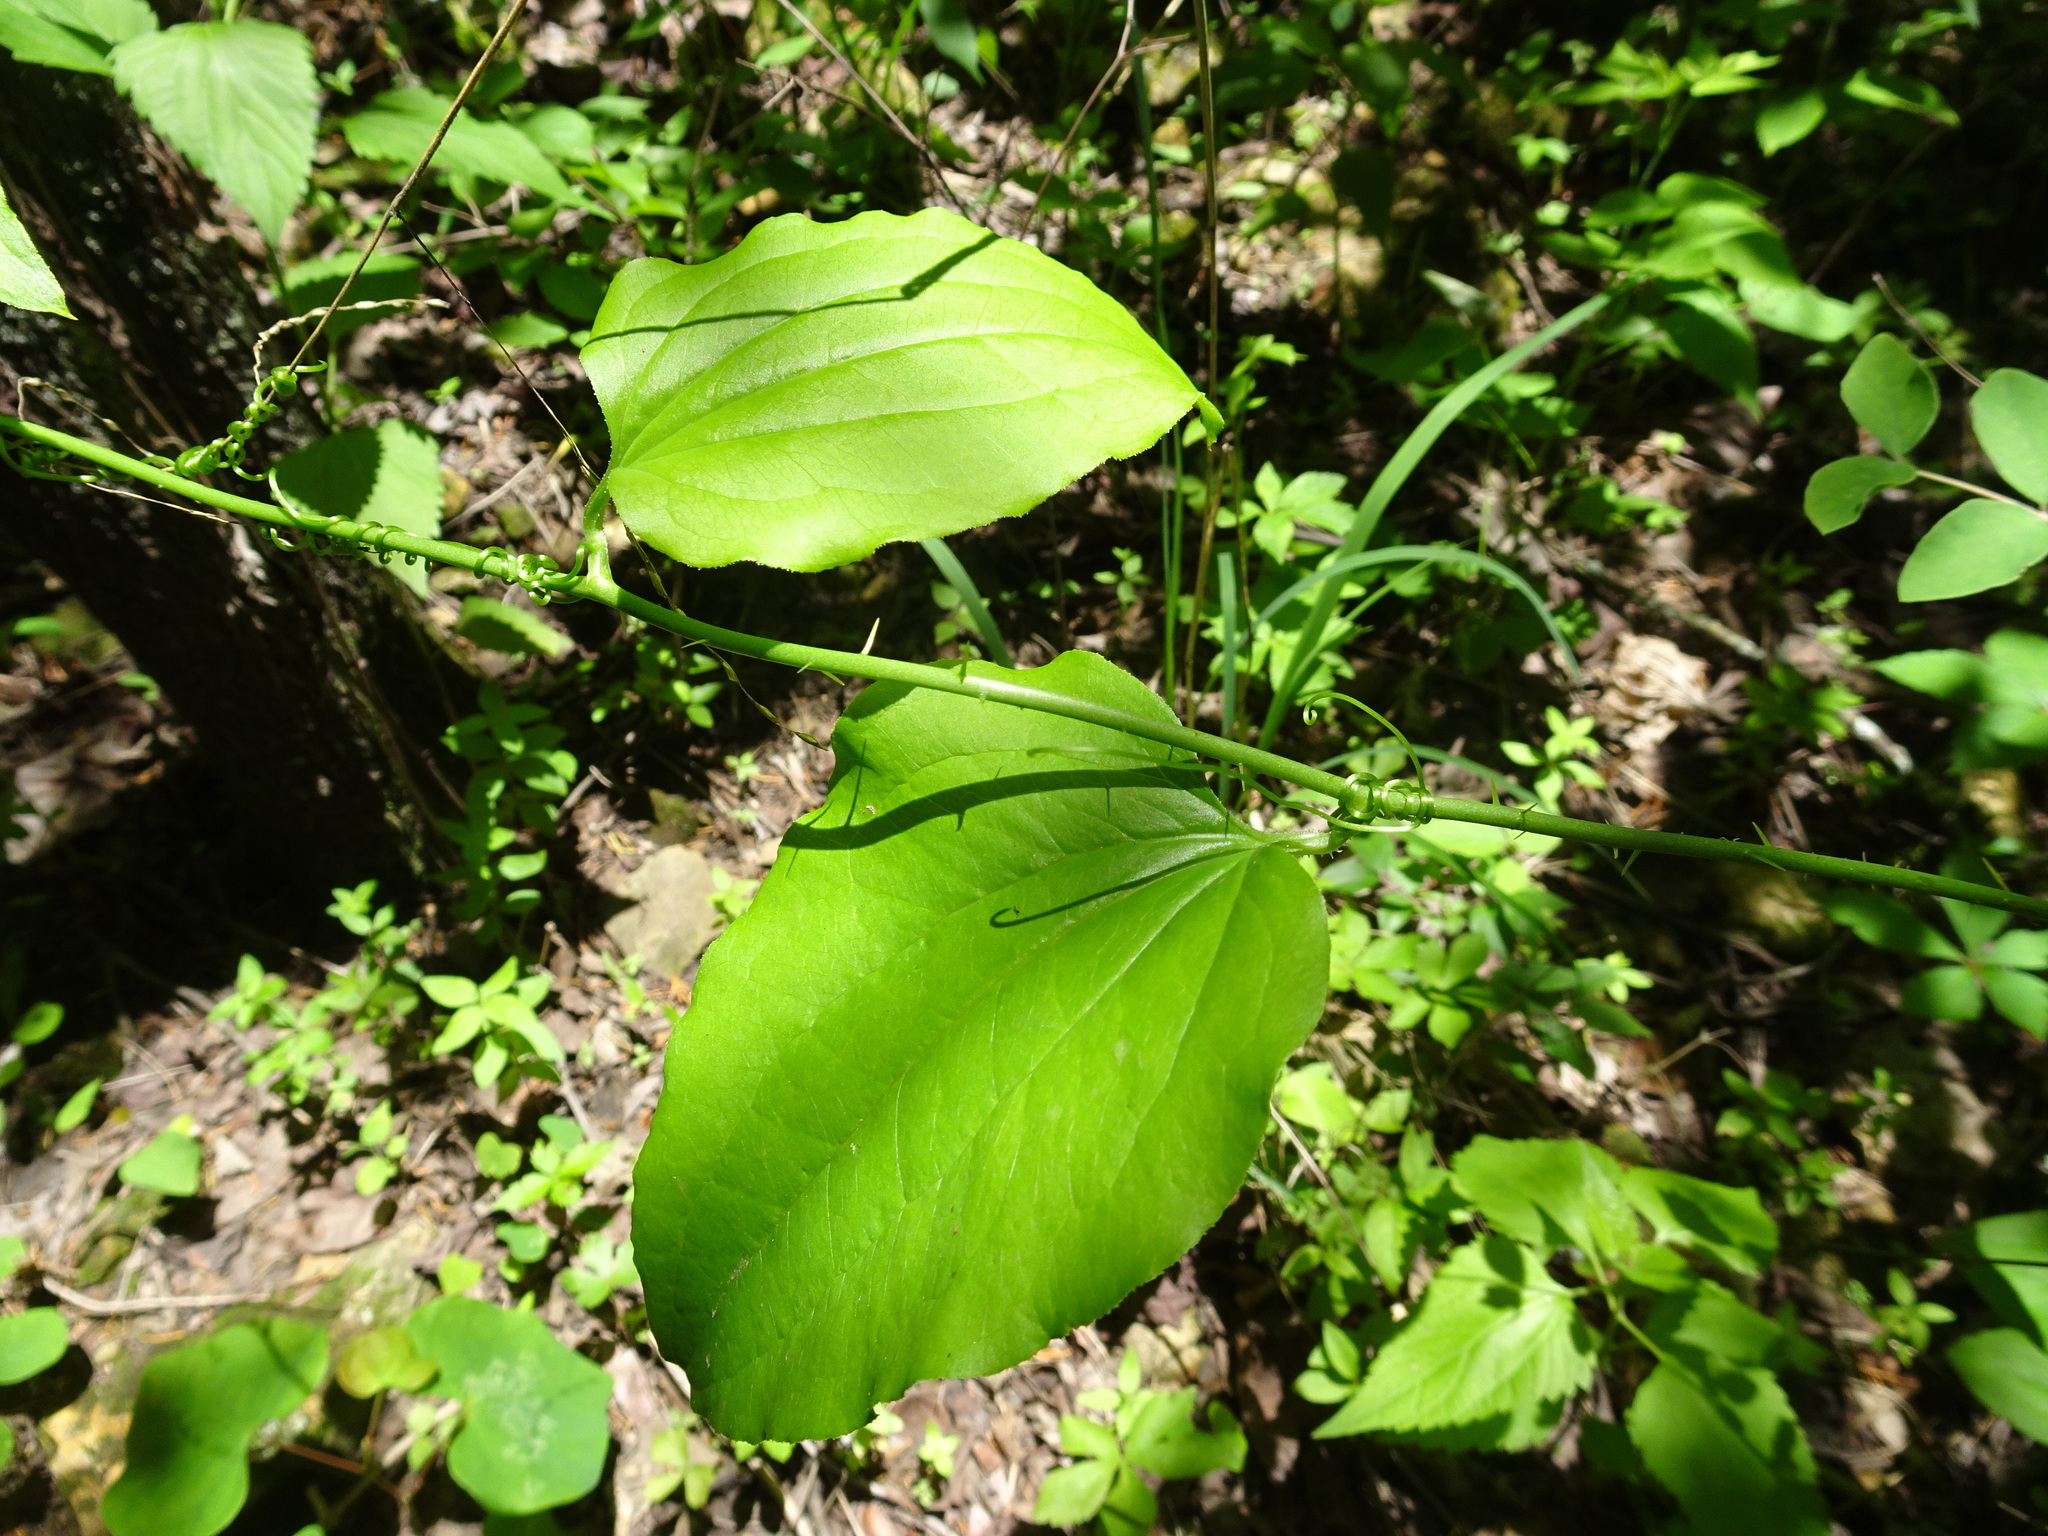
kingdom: Plantae
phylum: Tracheophyta
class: Liliopsida
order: Liliales
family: Smilacaceae
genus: Smilax
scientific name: Smilax tamnoides
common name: Hellfetter
